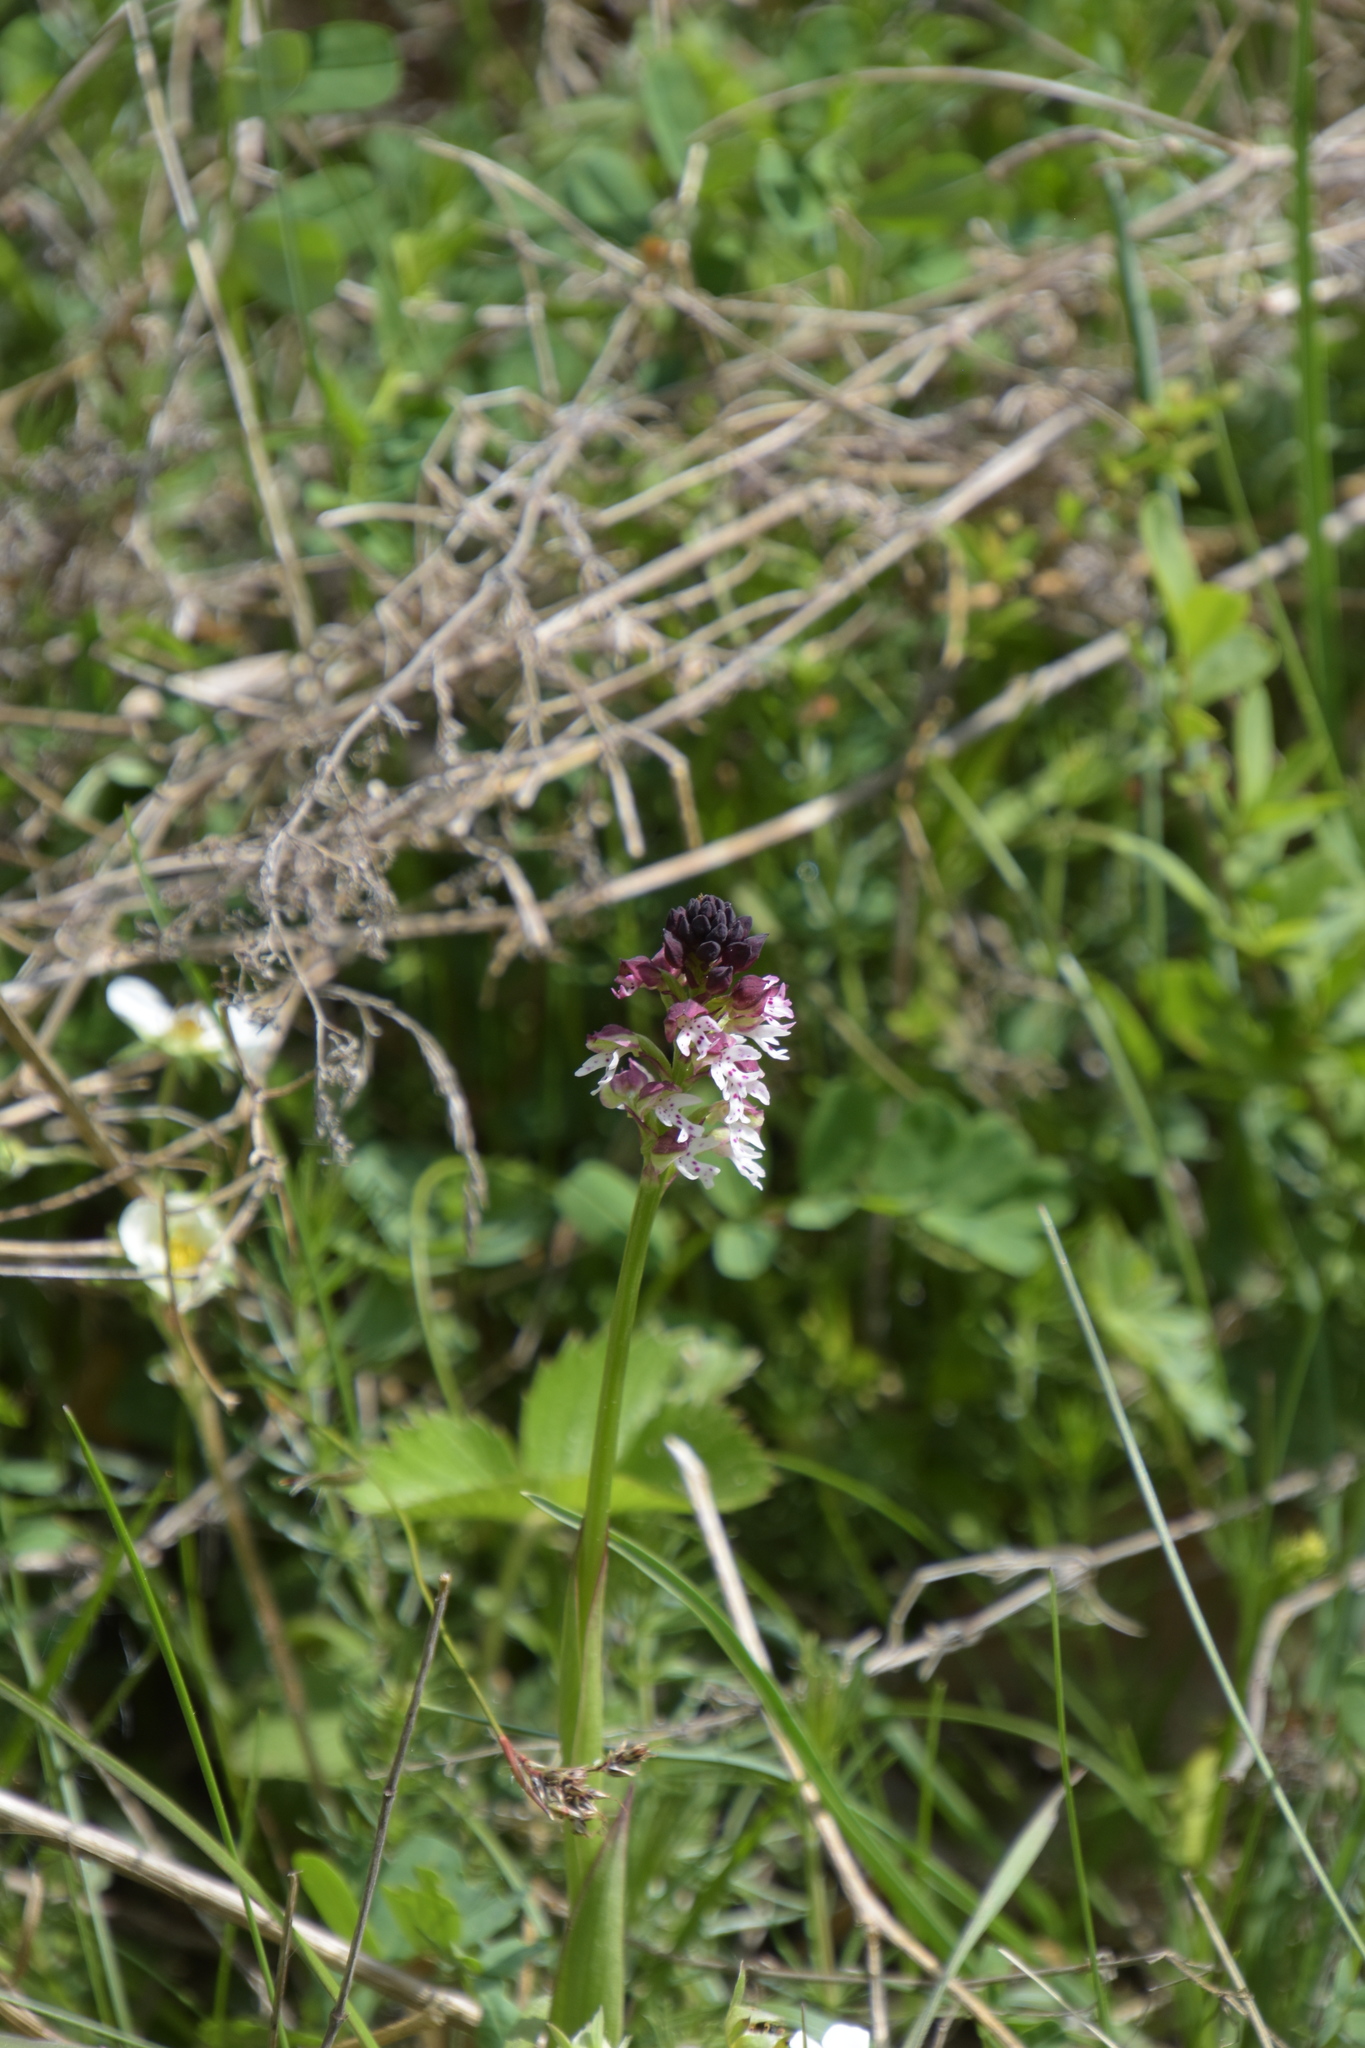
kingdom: Plantae
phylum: Tracheophyta
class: Liliopsida
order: Asparagales
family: Orchidaceae
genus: Neotinea
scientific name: Neotinea ustulata
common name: Burnt orchid
